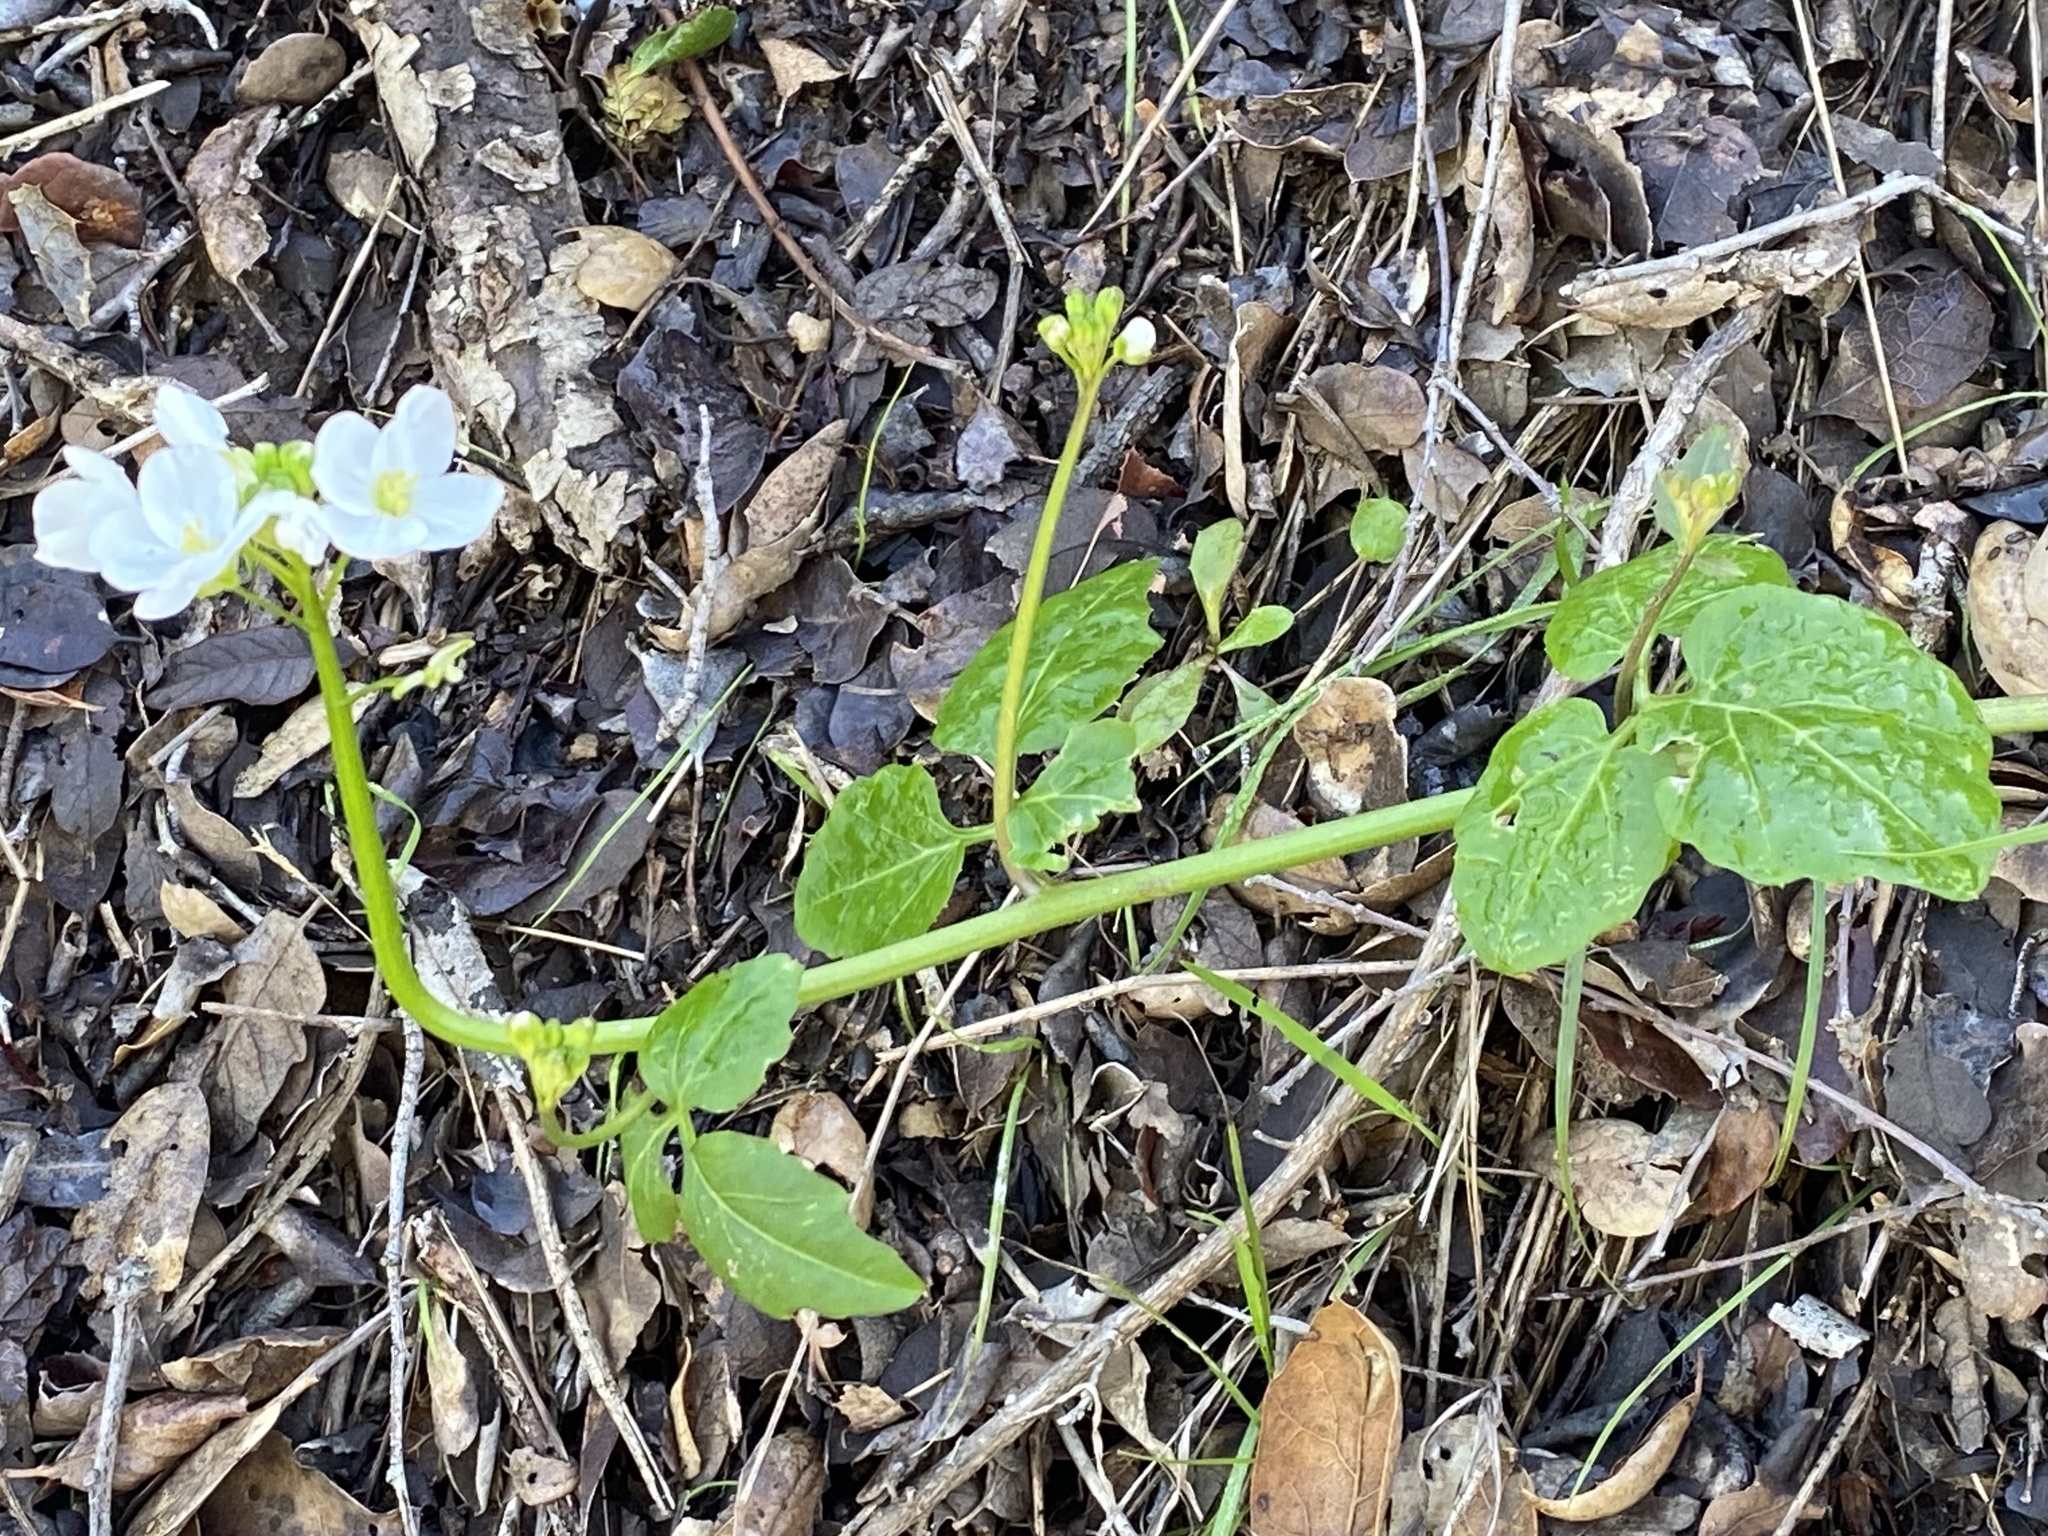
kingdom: Plantae
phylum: Tracheophyta
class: Magnoliopsida
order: Brassicales
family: Brassicaceae
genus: Cardamine
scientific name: Cardamine californica
